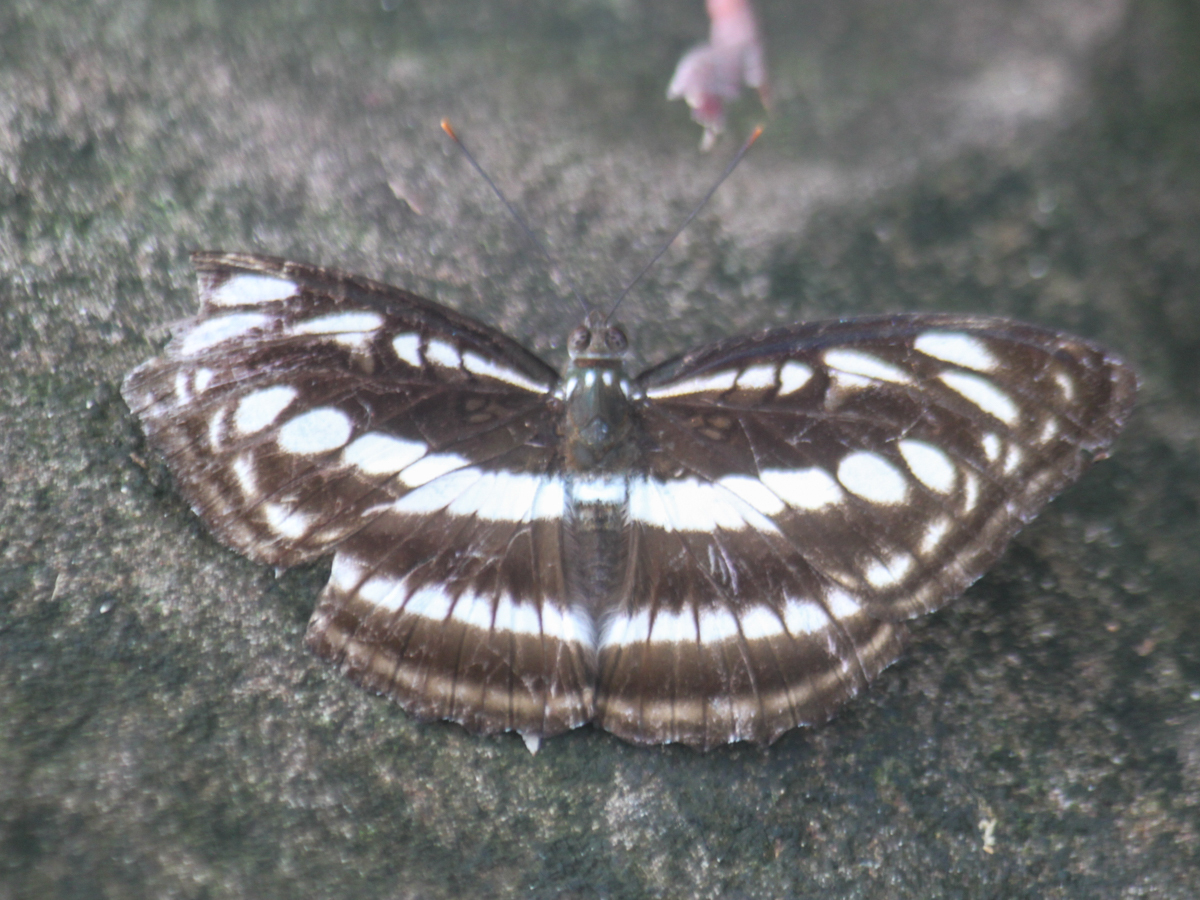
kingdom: Animalia
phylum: Arthropoda
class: Insecta
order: Lepidoptera
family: Nymphalidae
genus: Parathyma
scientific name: Parathyma selenophora
